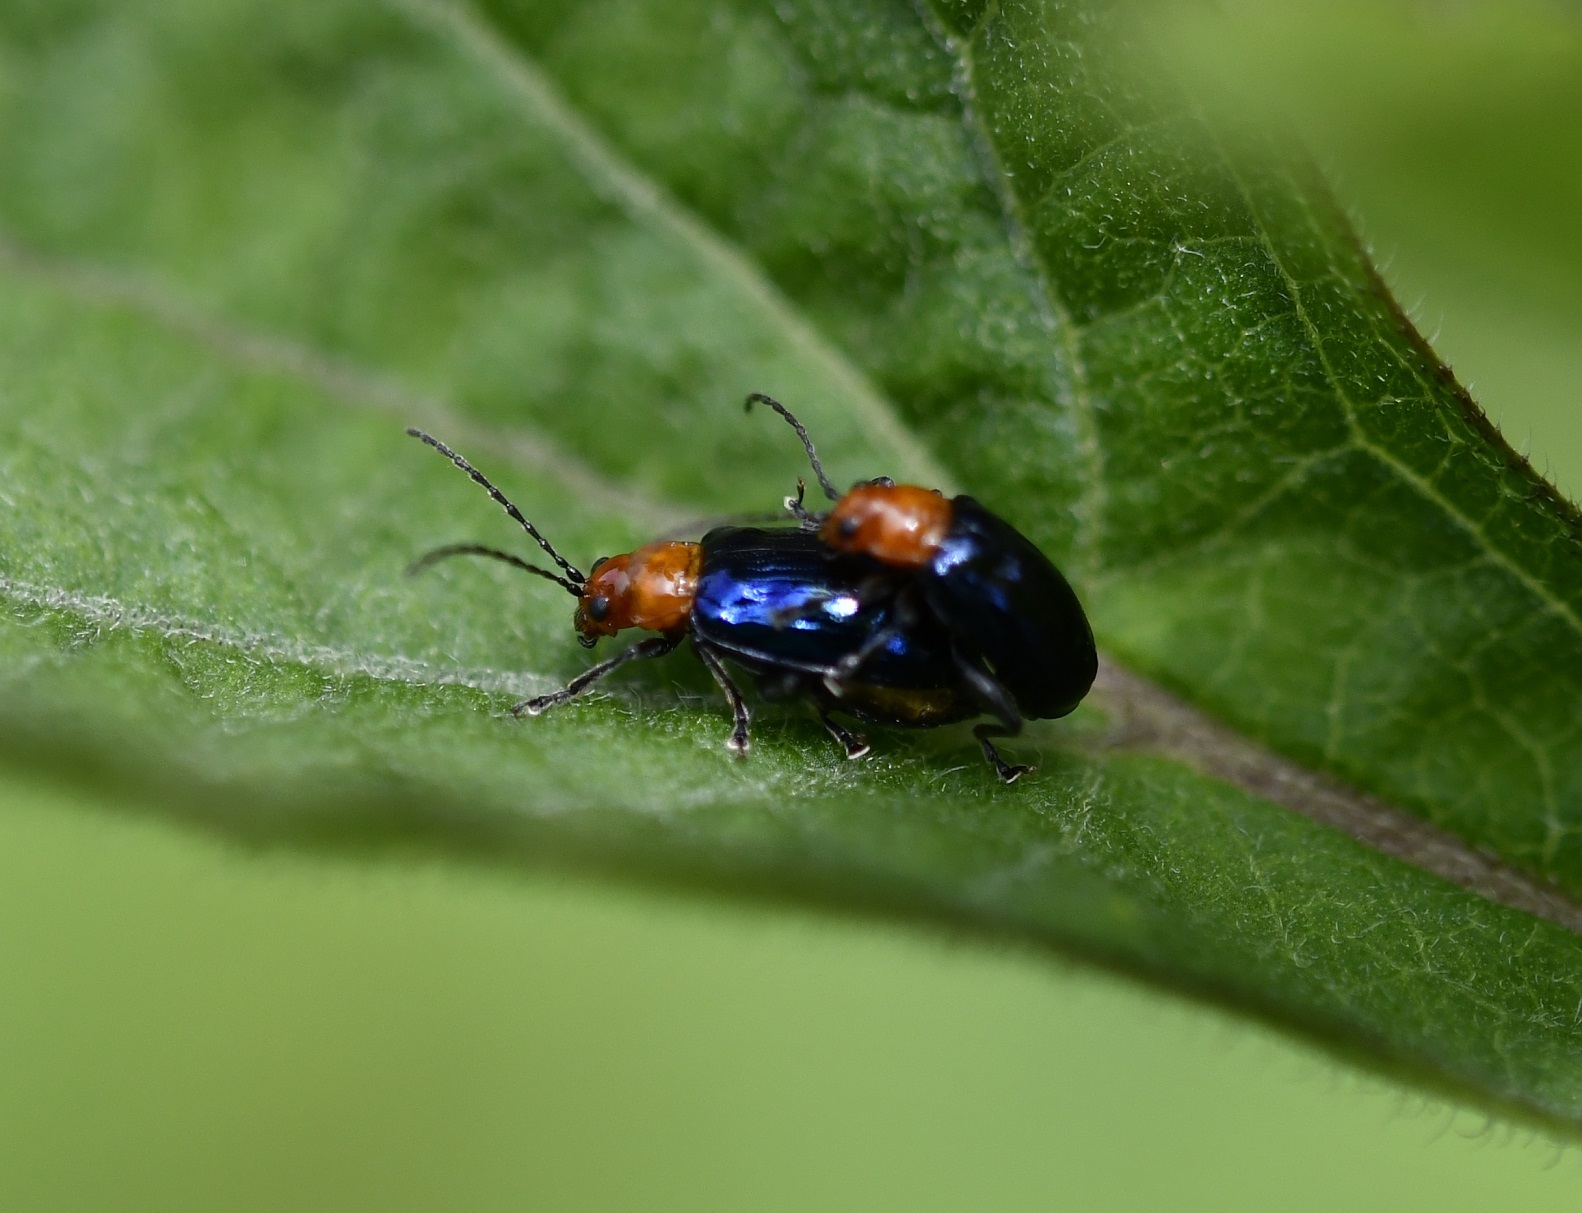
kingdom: Animalia
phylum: Arthropoda
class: Insecta
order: Coleoptera
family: Chrysomelidae
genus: Diphaulaca
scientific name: Diphaulaca wagneri
